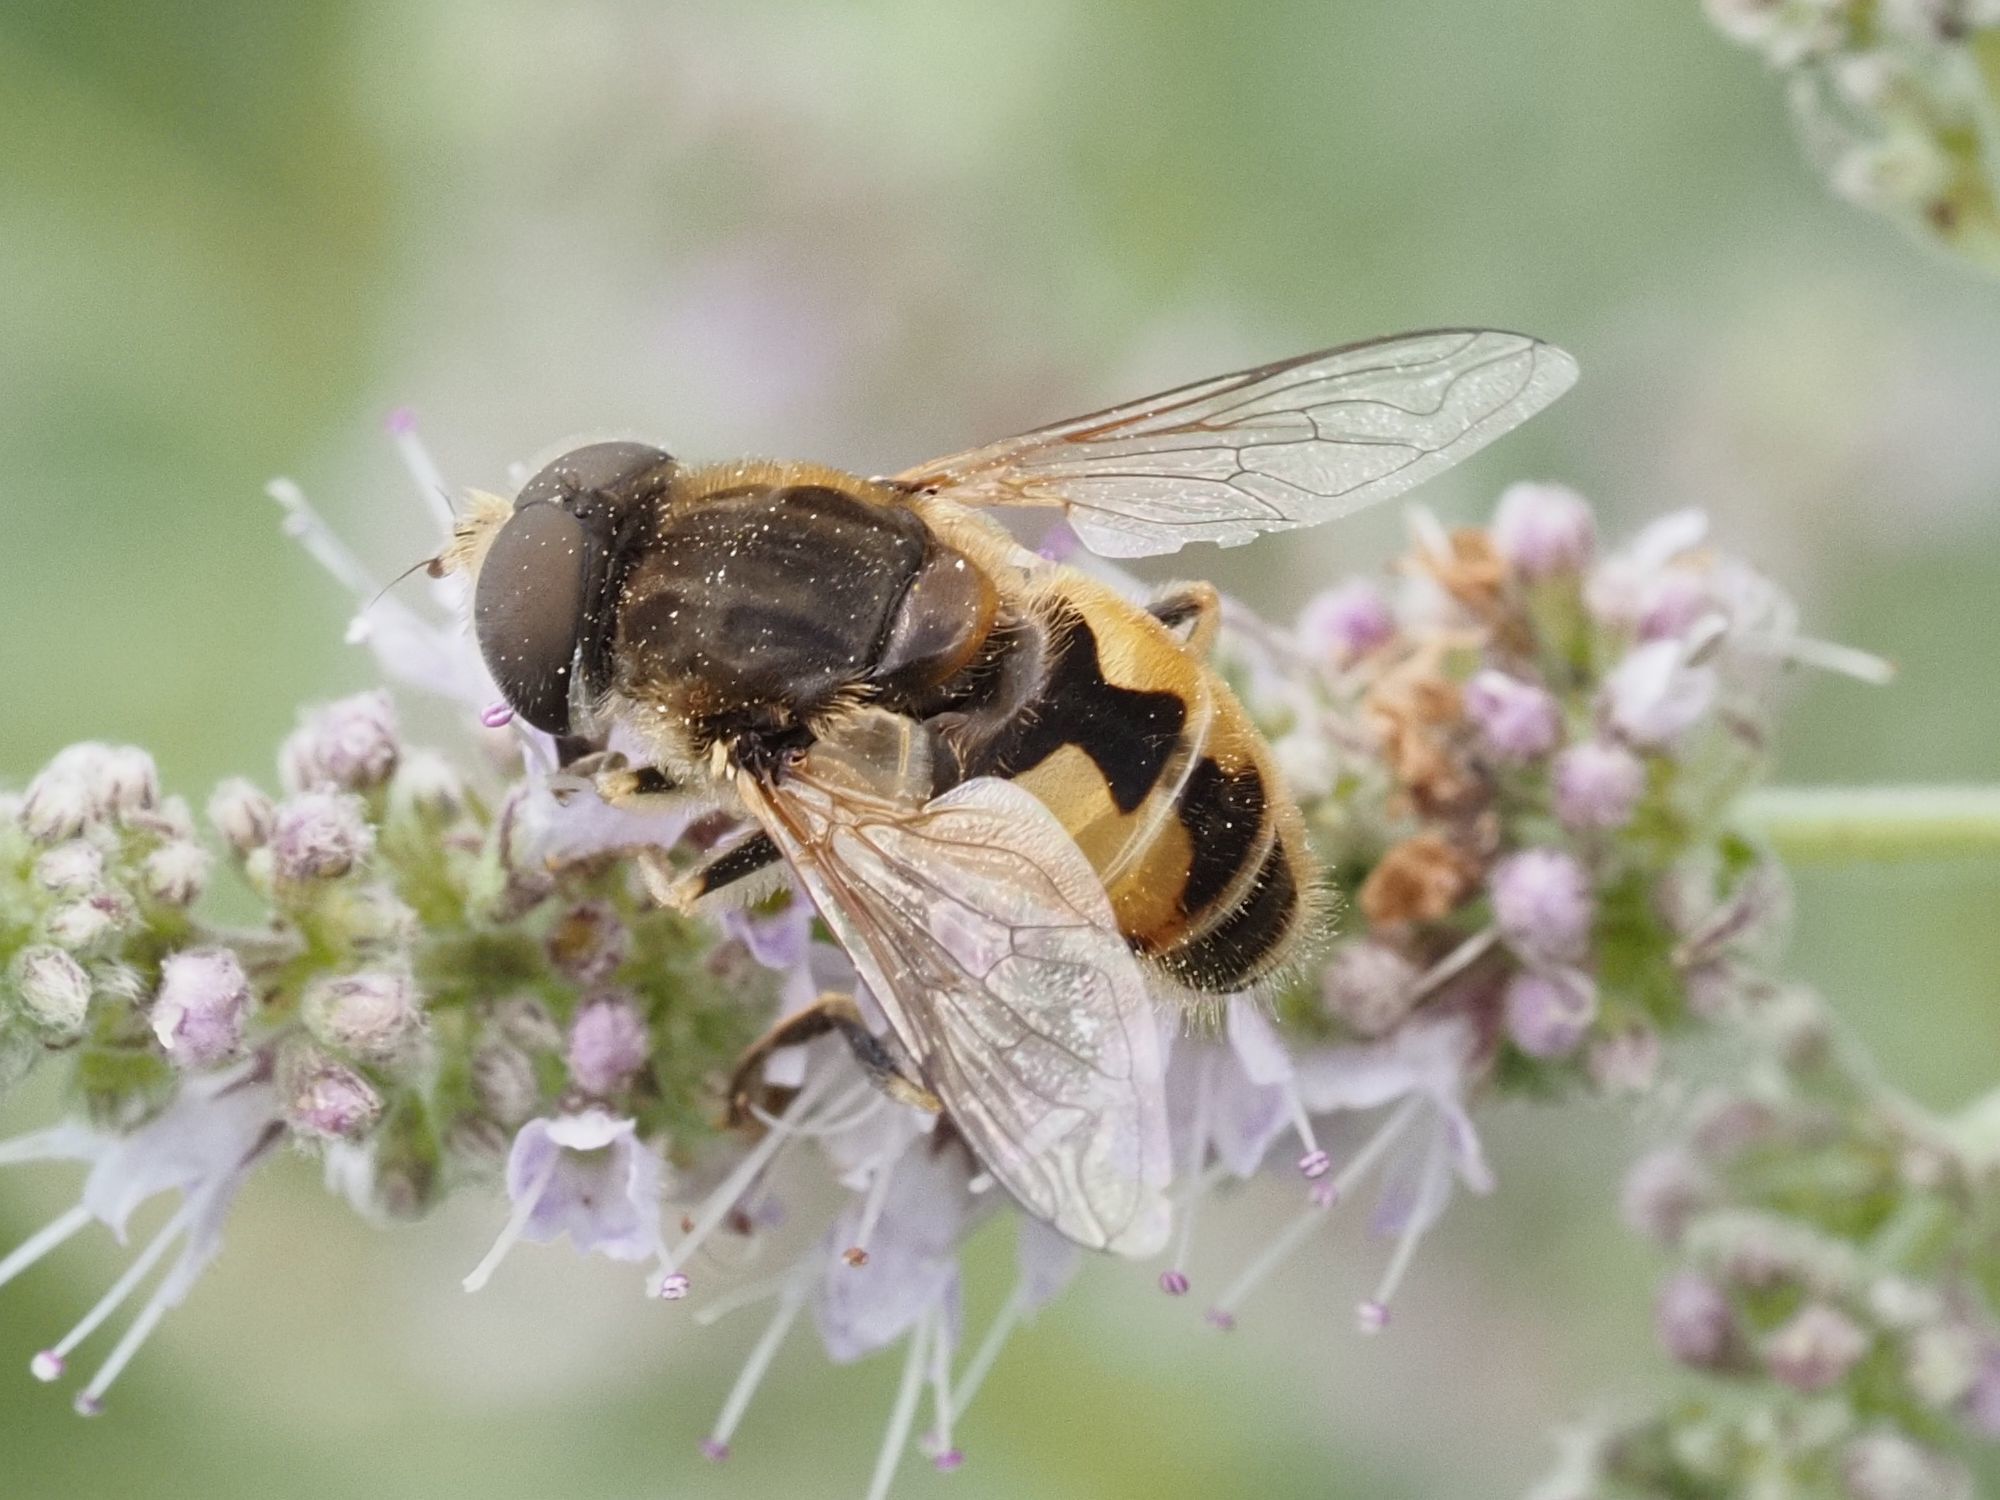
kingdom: Animalia
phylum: Arthropoda
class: Insecta
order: Diptera
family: Syrphidae
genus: Eristalis
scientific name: Eristalis arbustorum
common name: Hover fly
